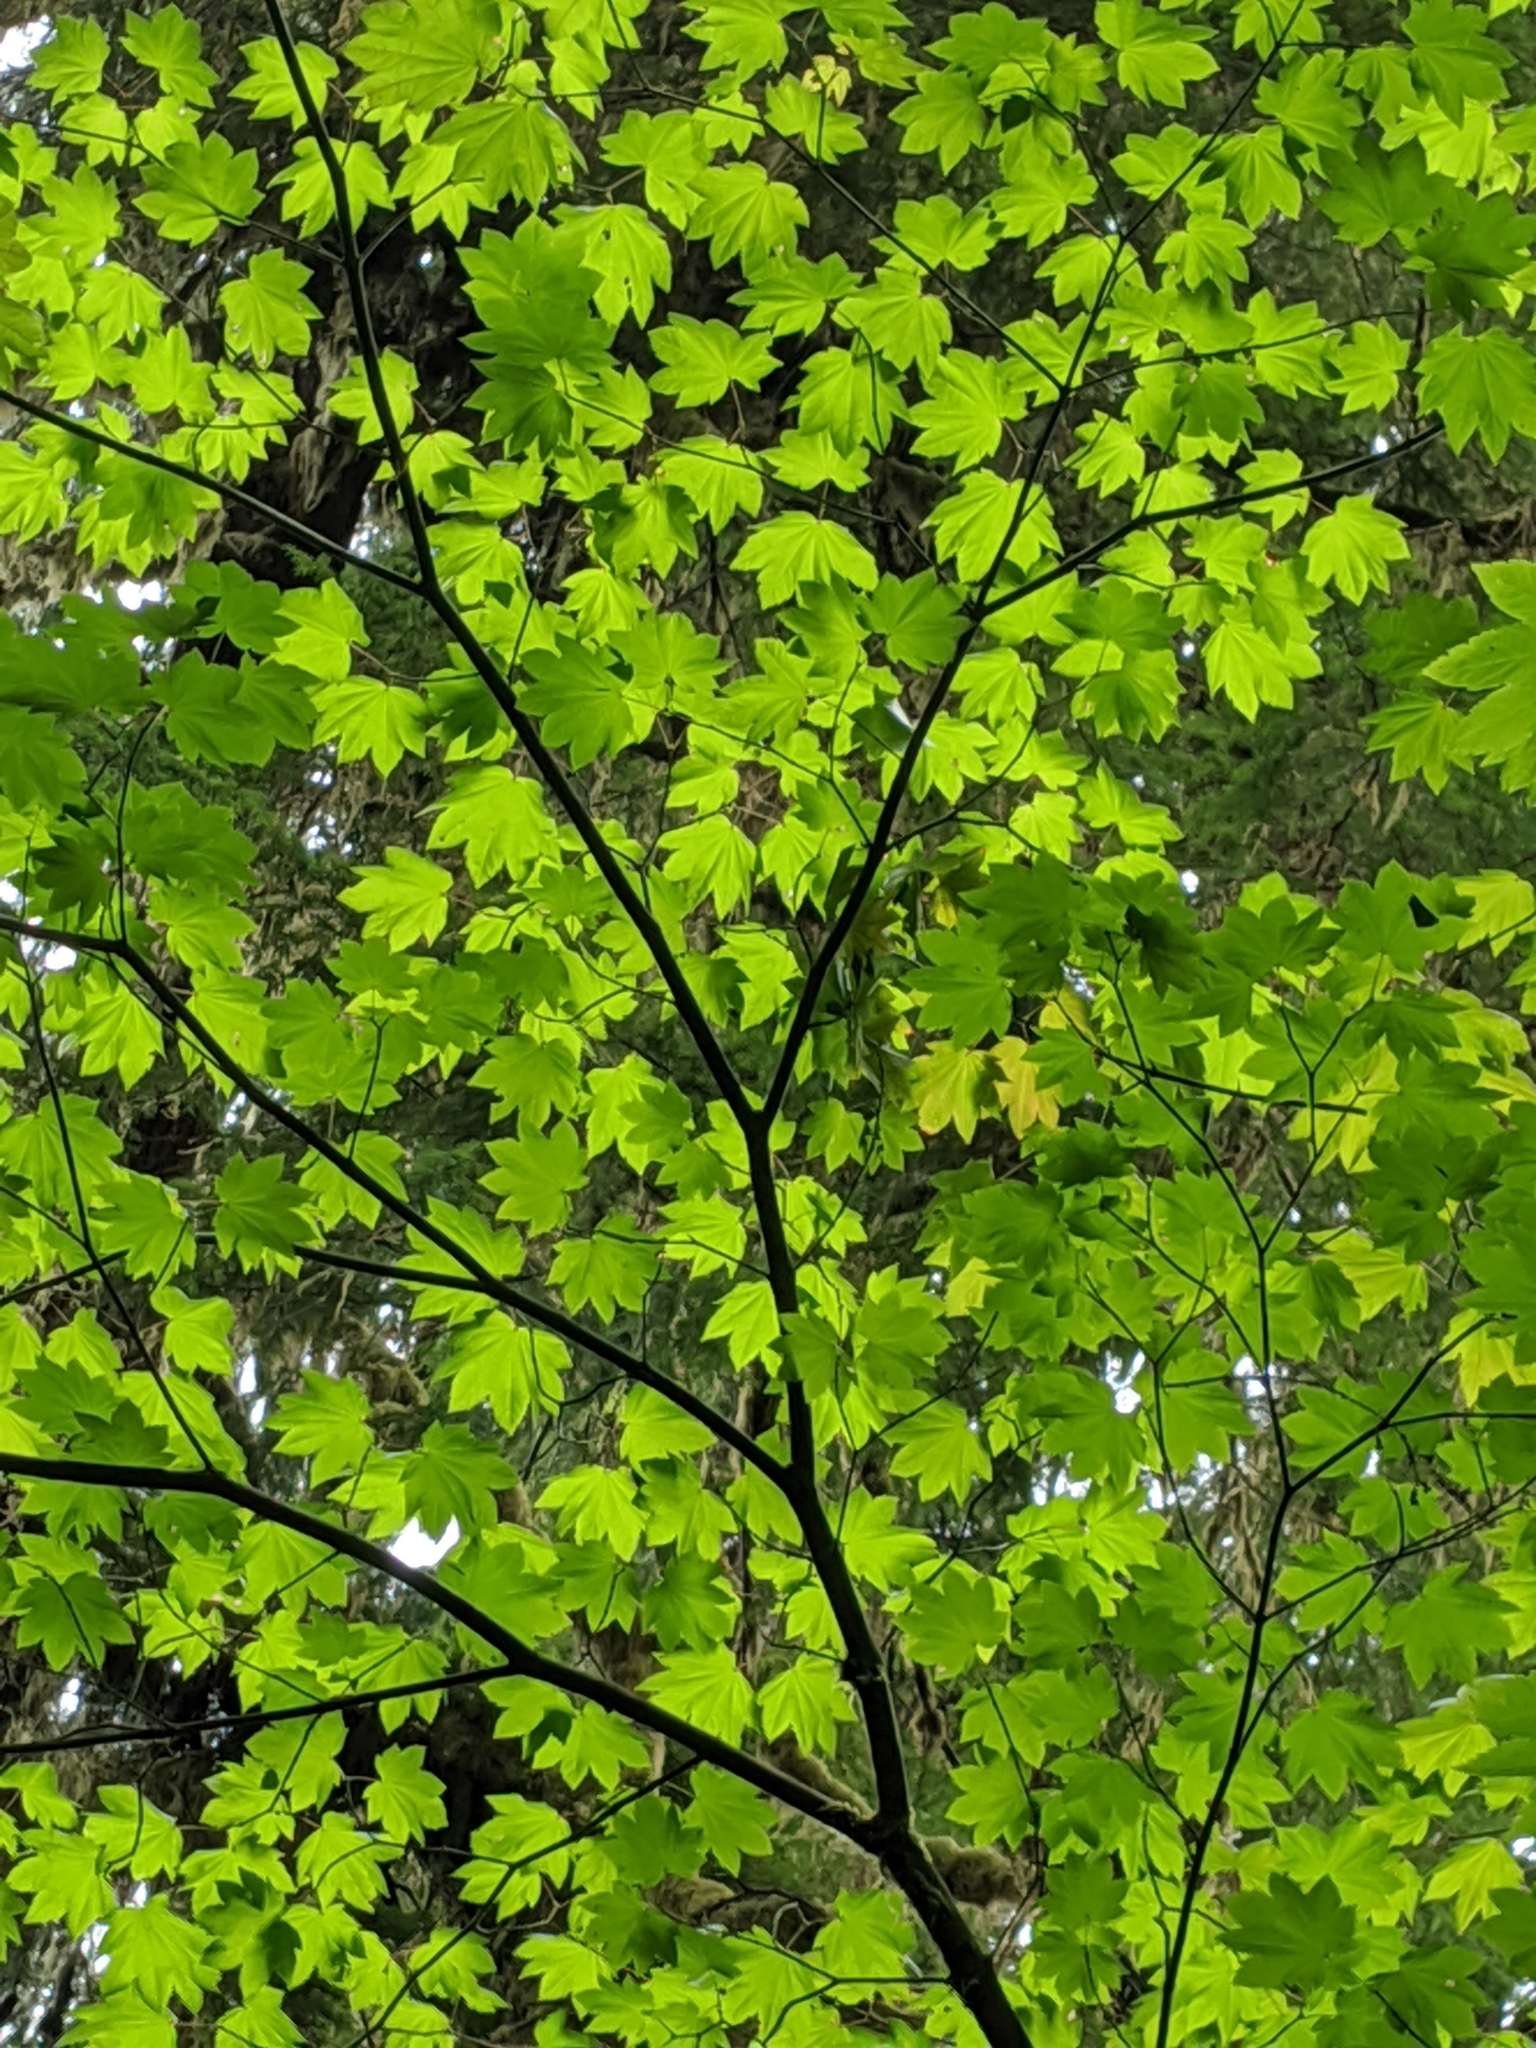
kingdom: Plantae
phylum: Tracheophyta
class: Magnoliopsida
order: Sapindales
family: Sapindaceae
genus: Acer
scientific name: Acer circinatum
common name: Vine maple
